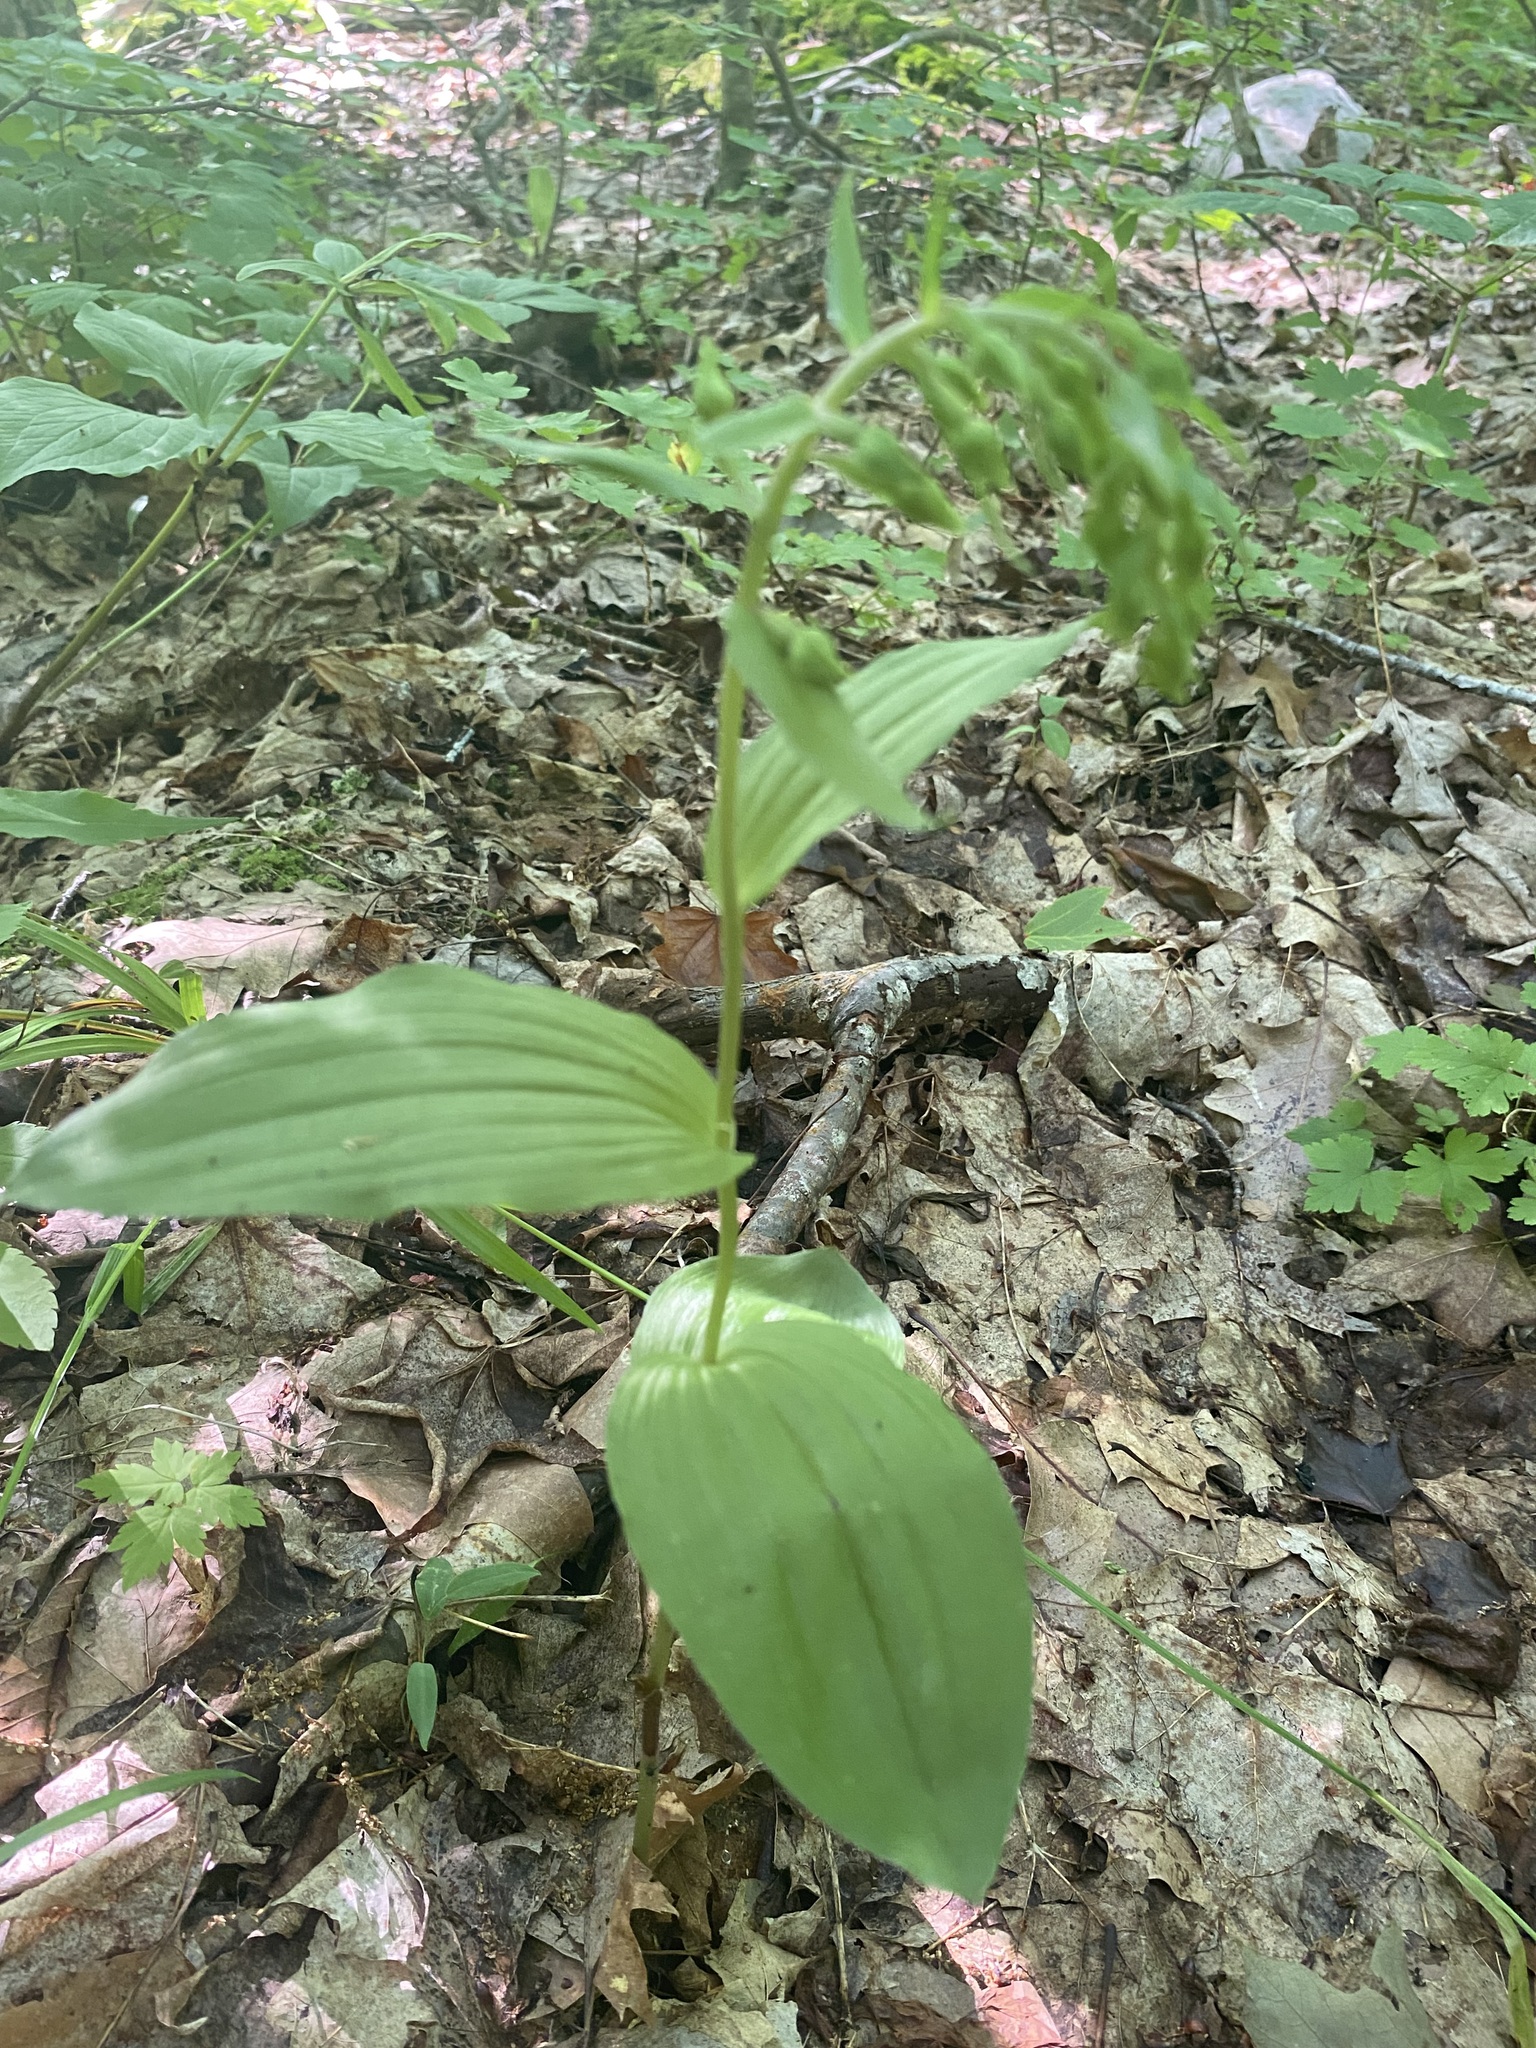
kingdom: Plantae
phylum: Tracheophyta
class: Liliopsida
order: Asparagales
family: Orchidaceae
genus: Epipactis
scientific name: Epipactis helleborine
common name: Broad-leaved helleborine
